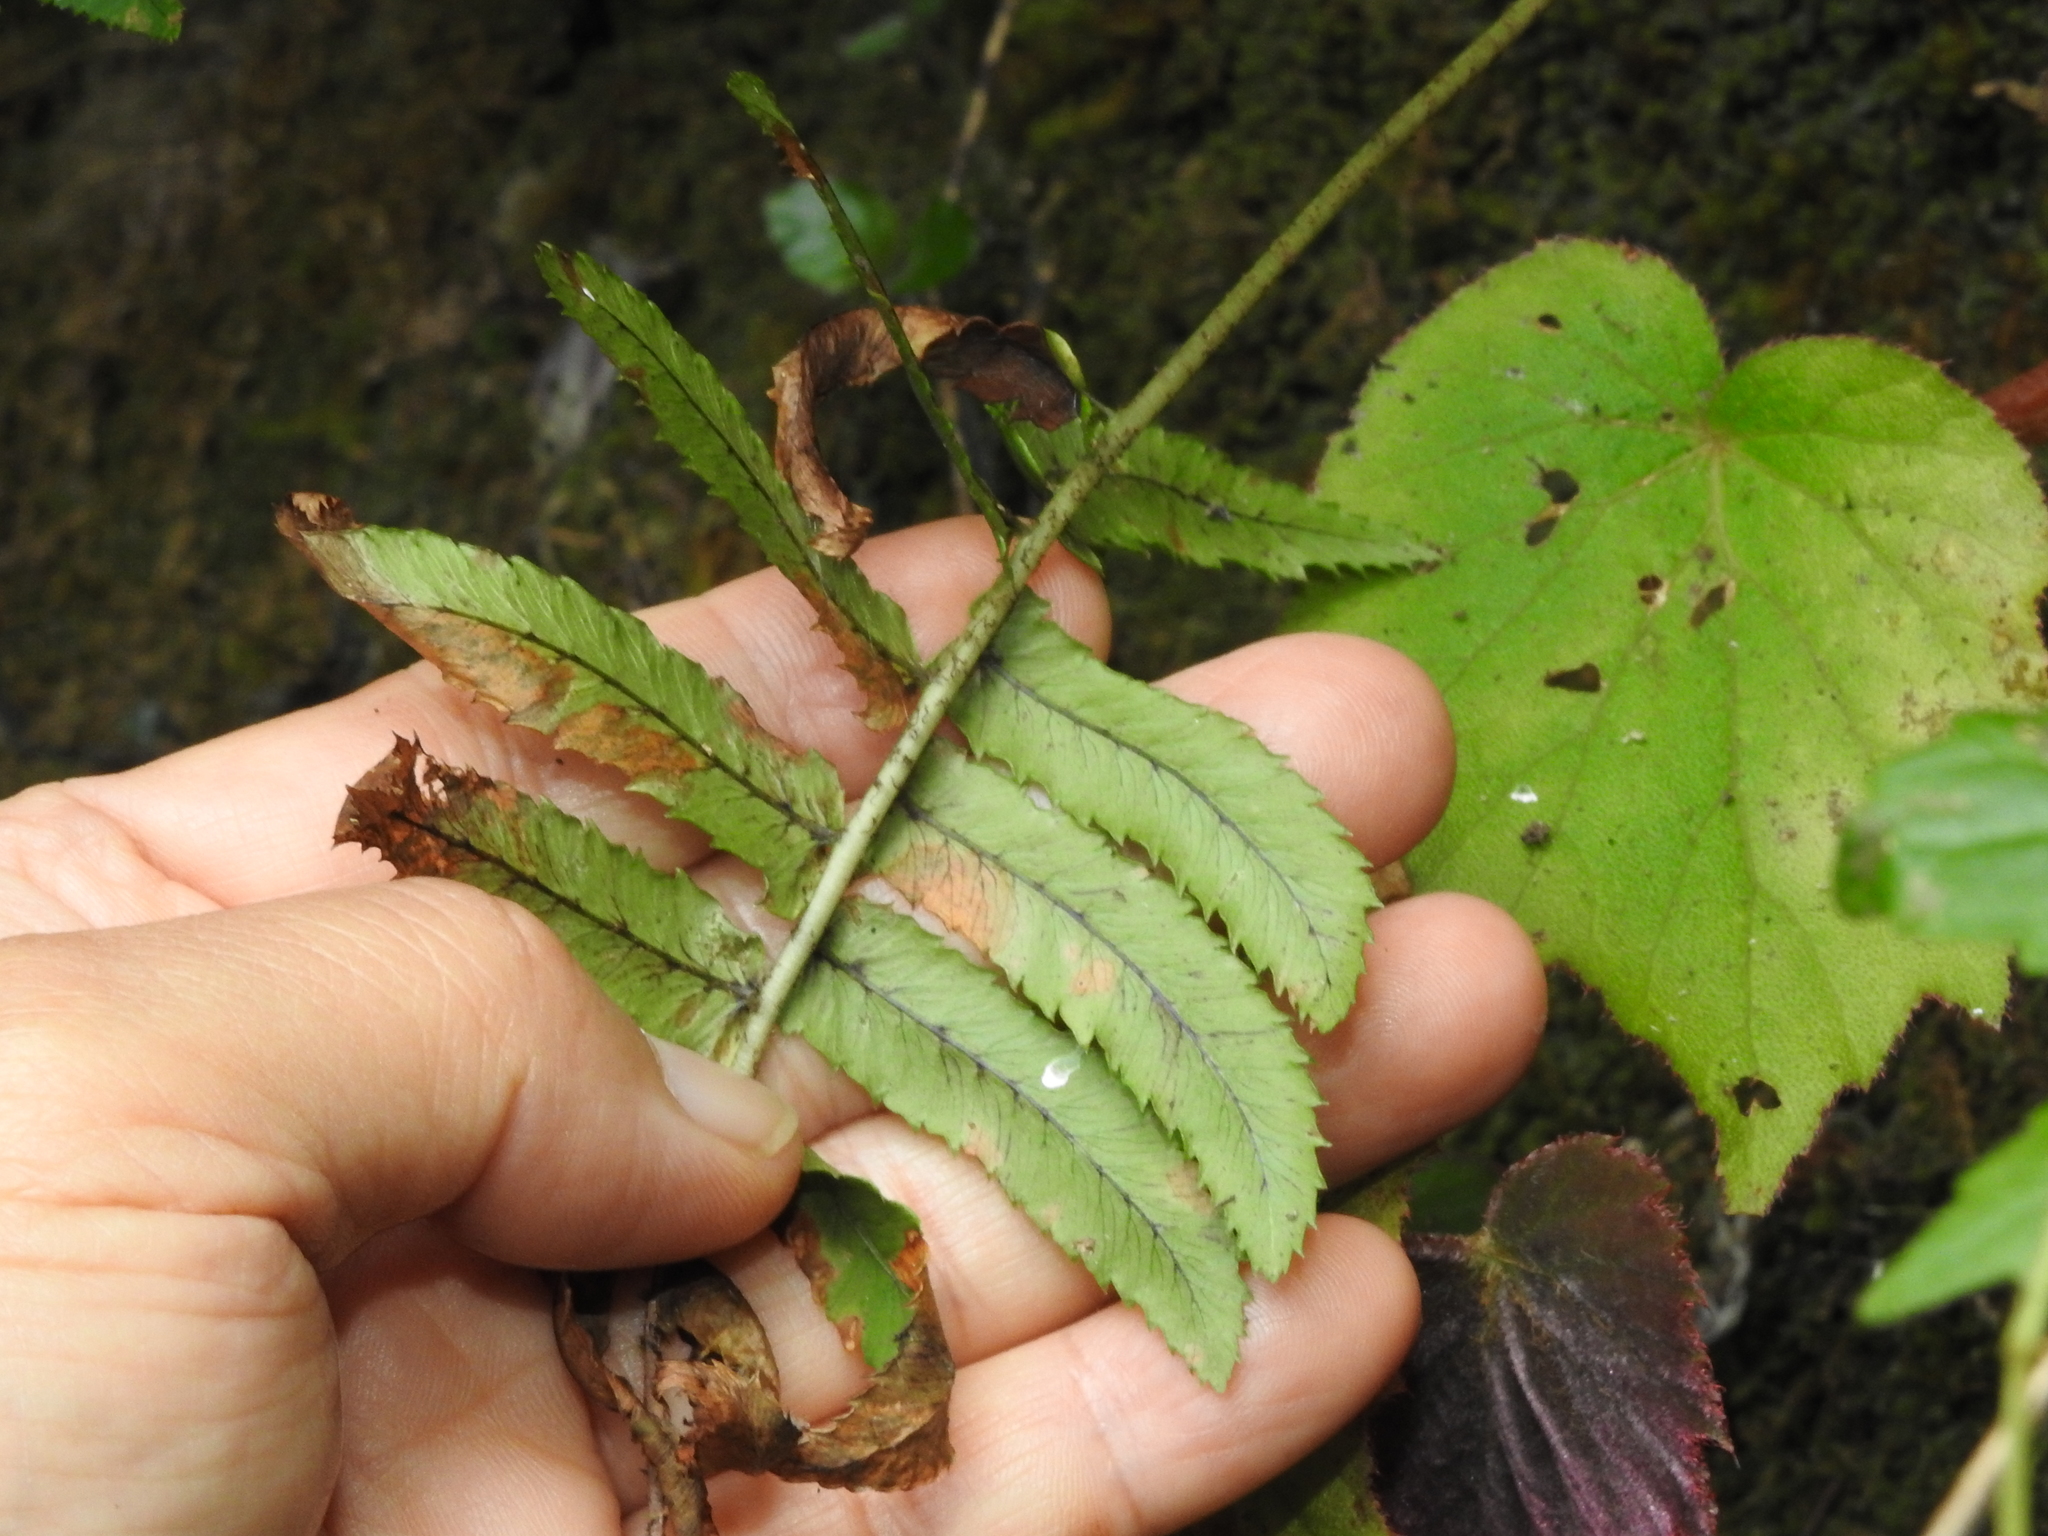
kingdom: Plantae
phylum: Tracheophyta
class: Polypodiopsida
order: Polypodiales
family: Dryopteridaceae
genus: Dryopteris
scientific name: Dryopteris subatrata
